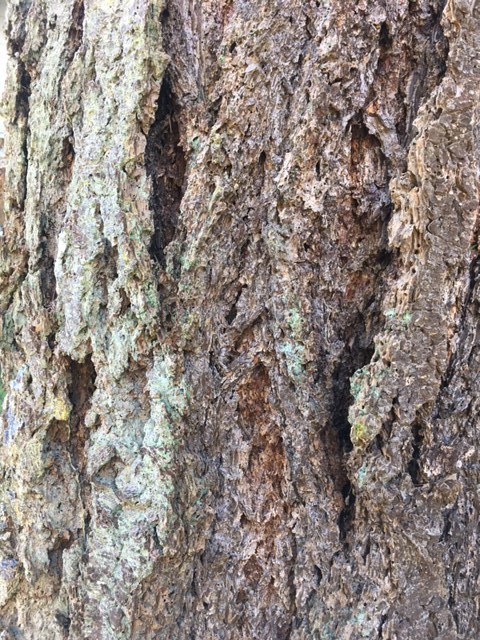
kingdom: Plantae
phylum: Tracheophyta
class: Pinopsida
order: Pinales
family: Pinaceae
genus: Pseudotsuga
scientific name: Pseudotsuga menziesii
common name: Douglas fir
